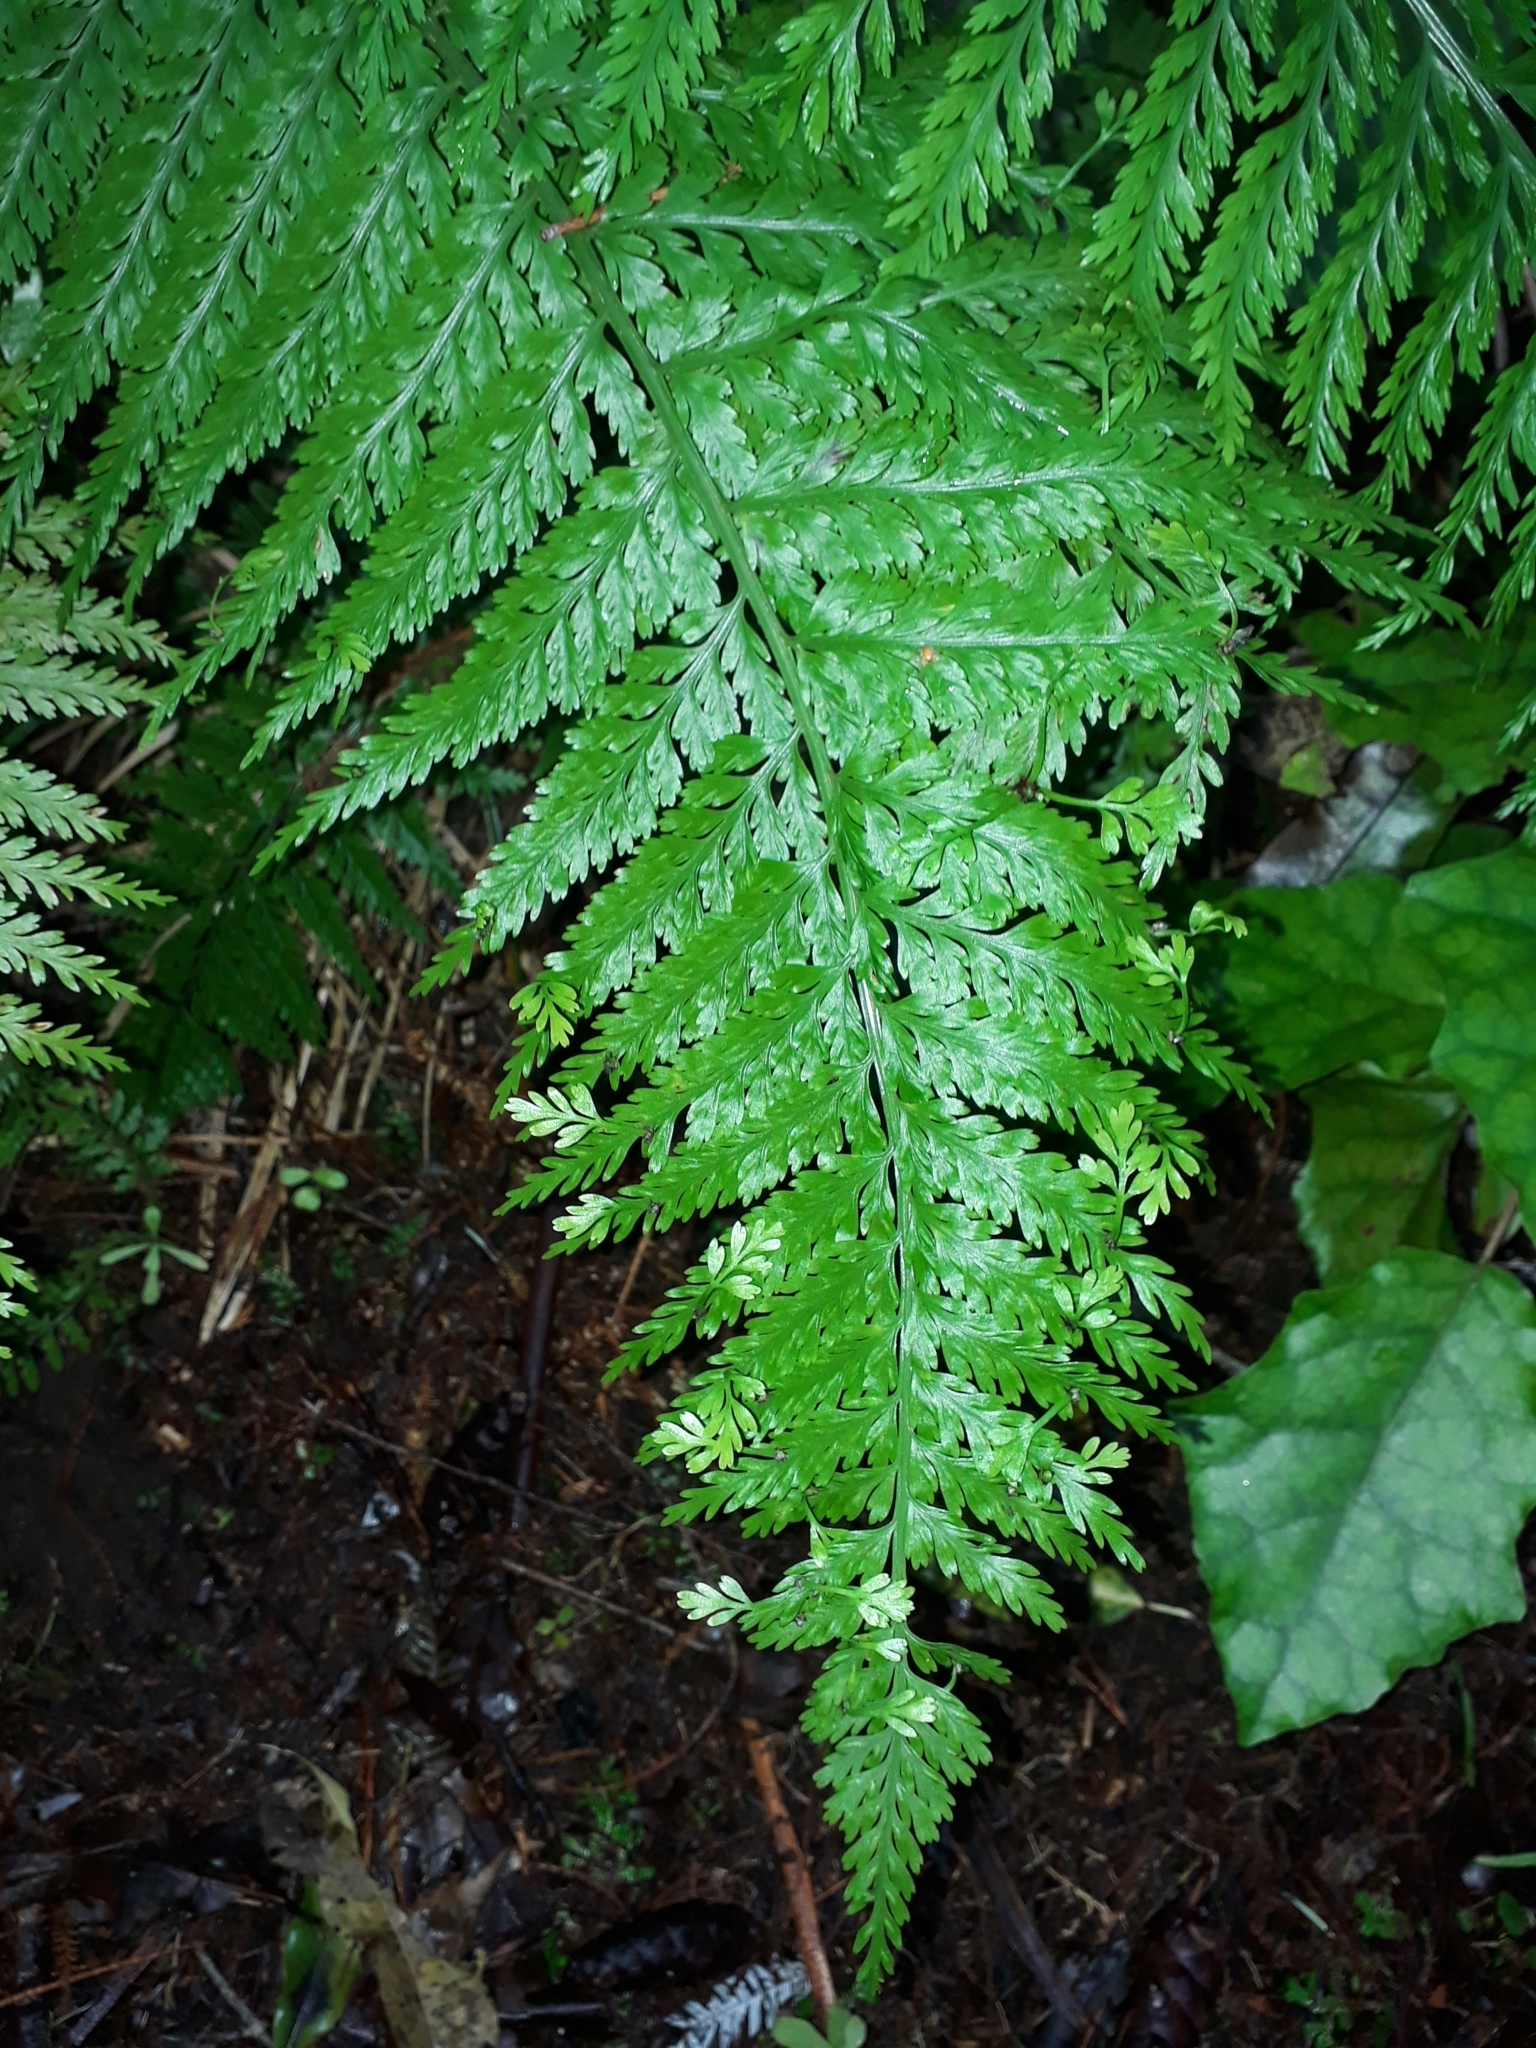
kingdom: Plantae
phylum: Tracheophyta
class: Polypodiopsida
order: Polypodiales
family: Aspleniaceae
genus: Asplenium
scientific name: Asplenium bulbiferum
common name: Mother fern
